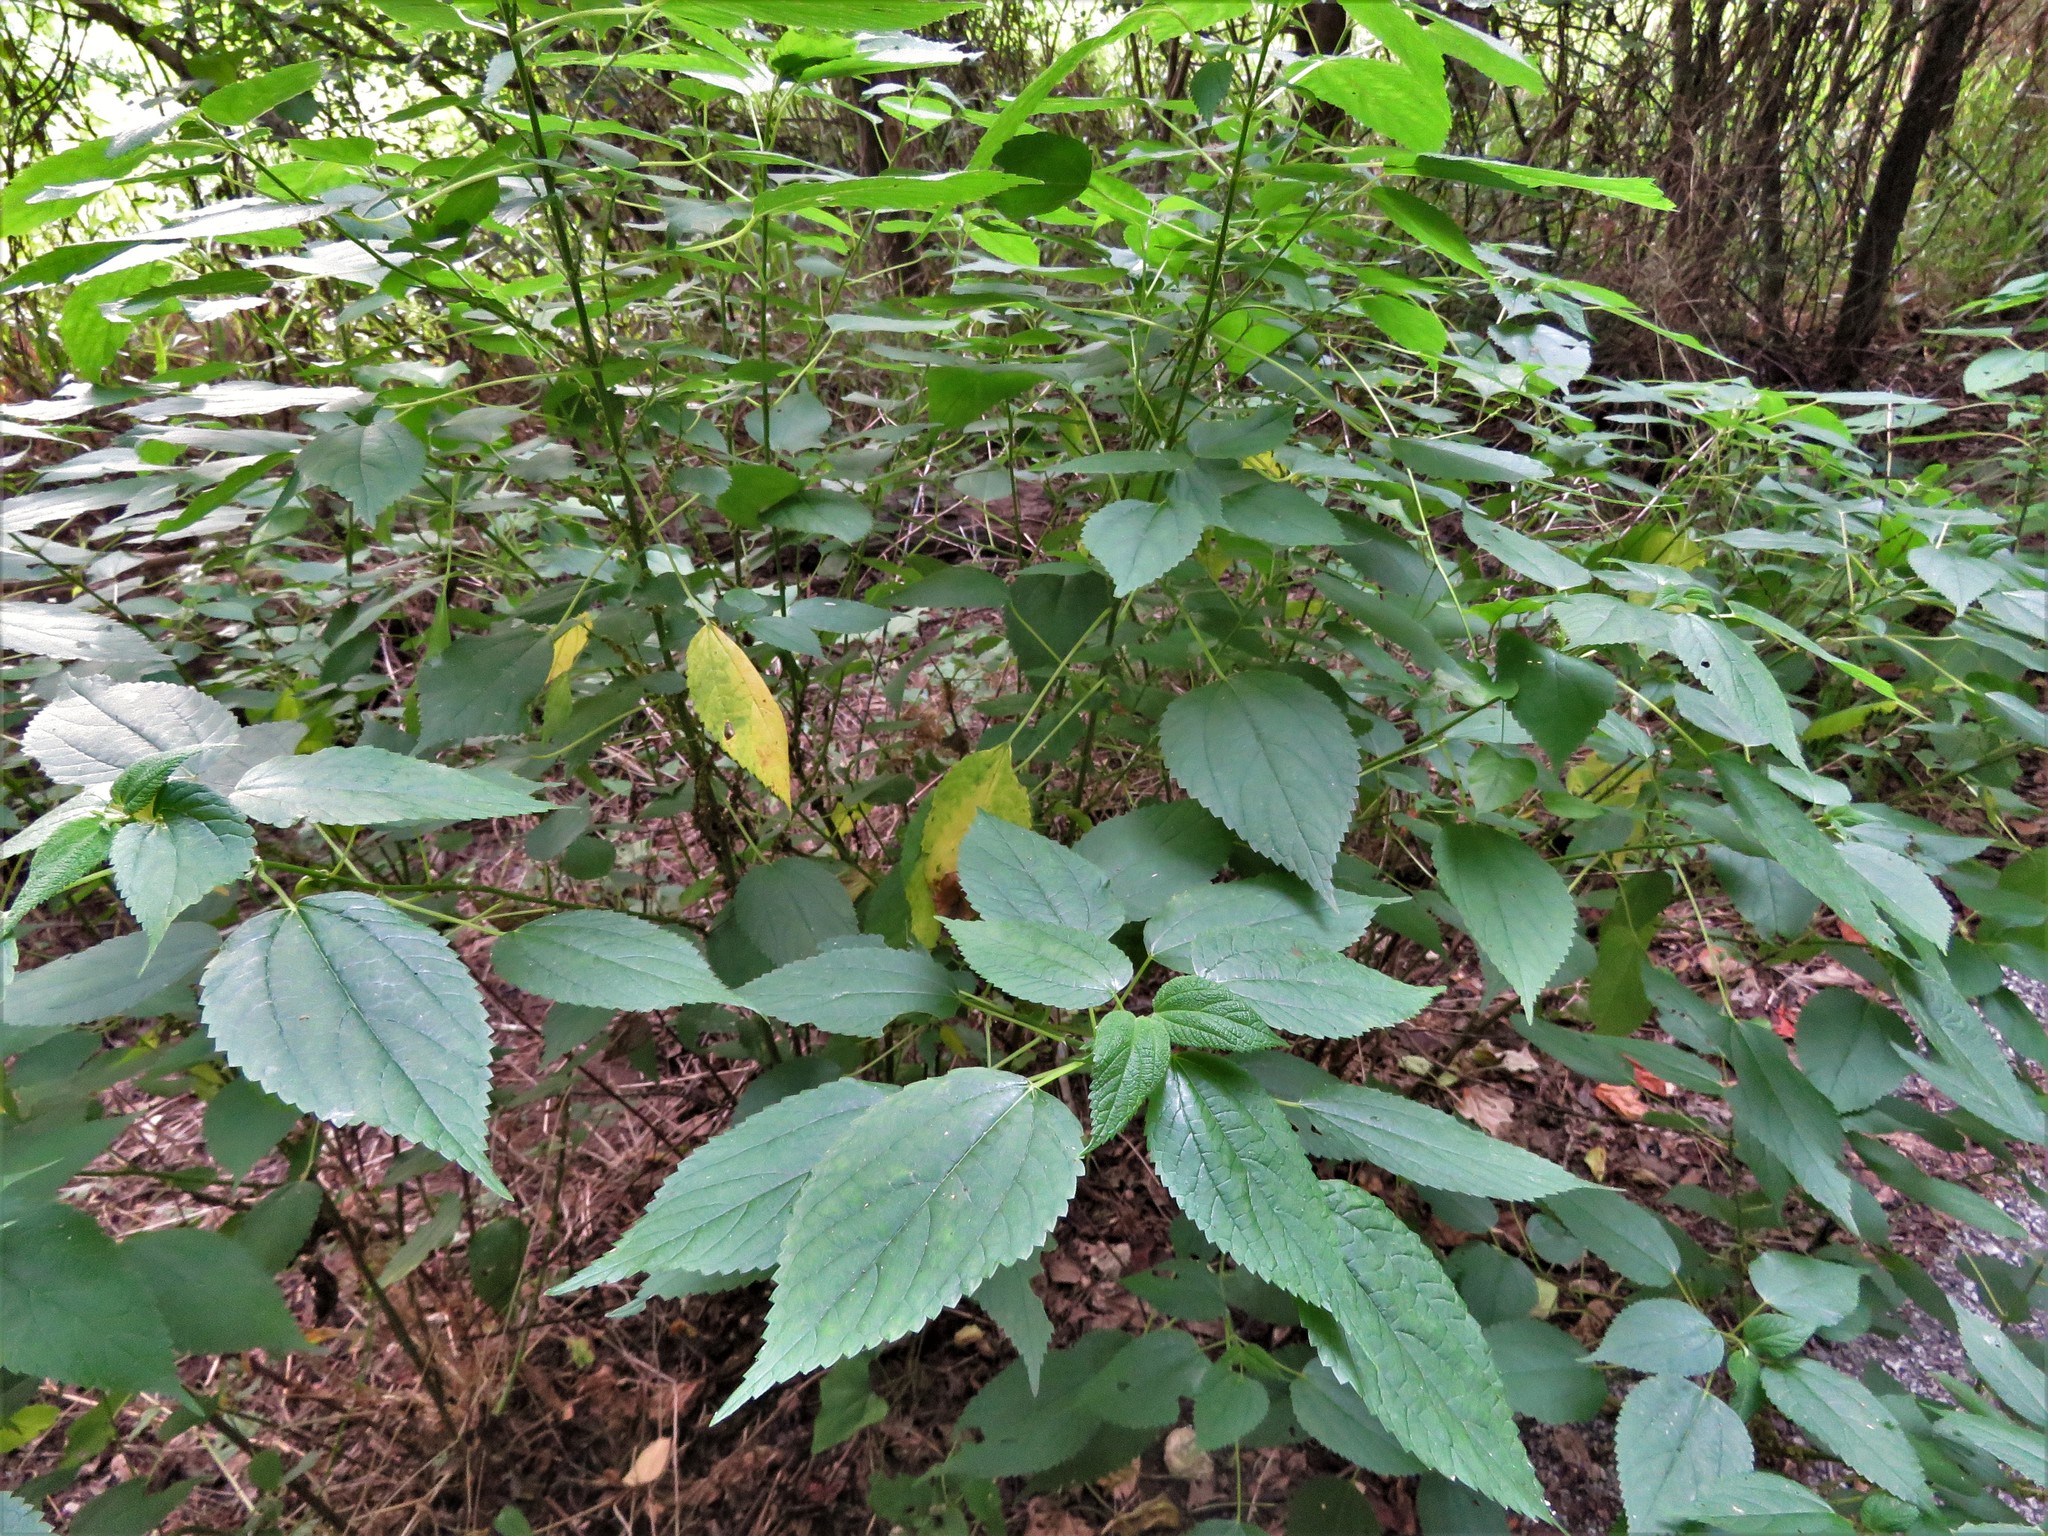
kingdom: Plantae
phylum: Tracheophyta
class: Magnoliopsida
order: Rosales
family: Urticaceae
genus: Boehmeria
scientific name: Boehmeria cylindrica
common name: Bog-hemp
